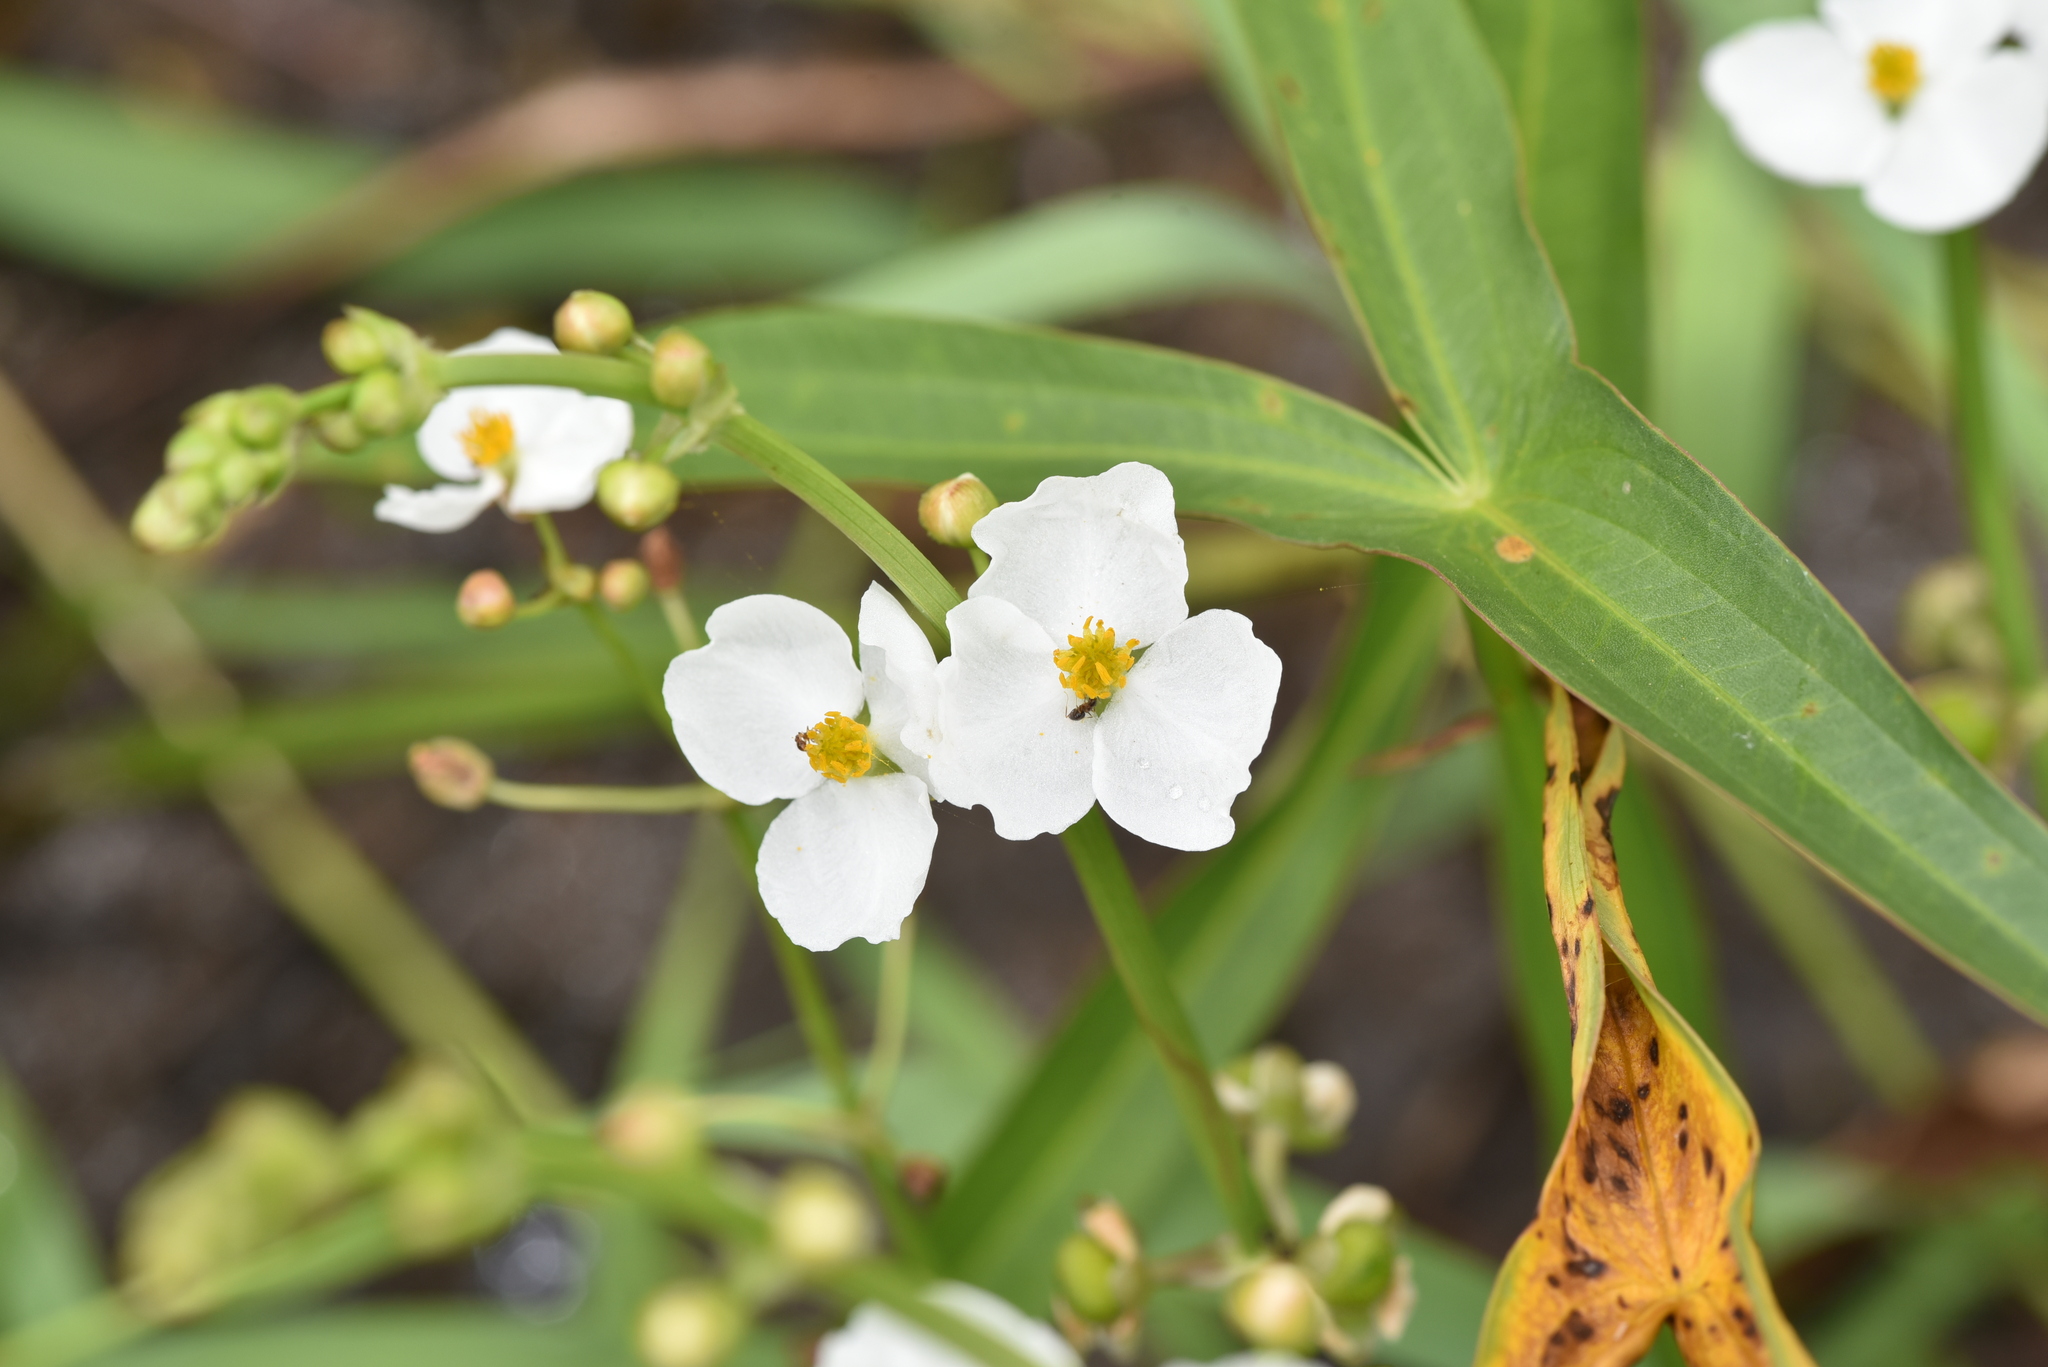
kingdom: Plantae
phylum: Tracheophyta
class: Liliopsida
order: Alismatales
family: Alismataceae
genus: Sagittaria
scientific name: Sagittaria trifolia
